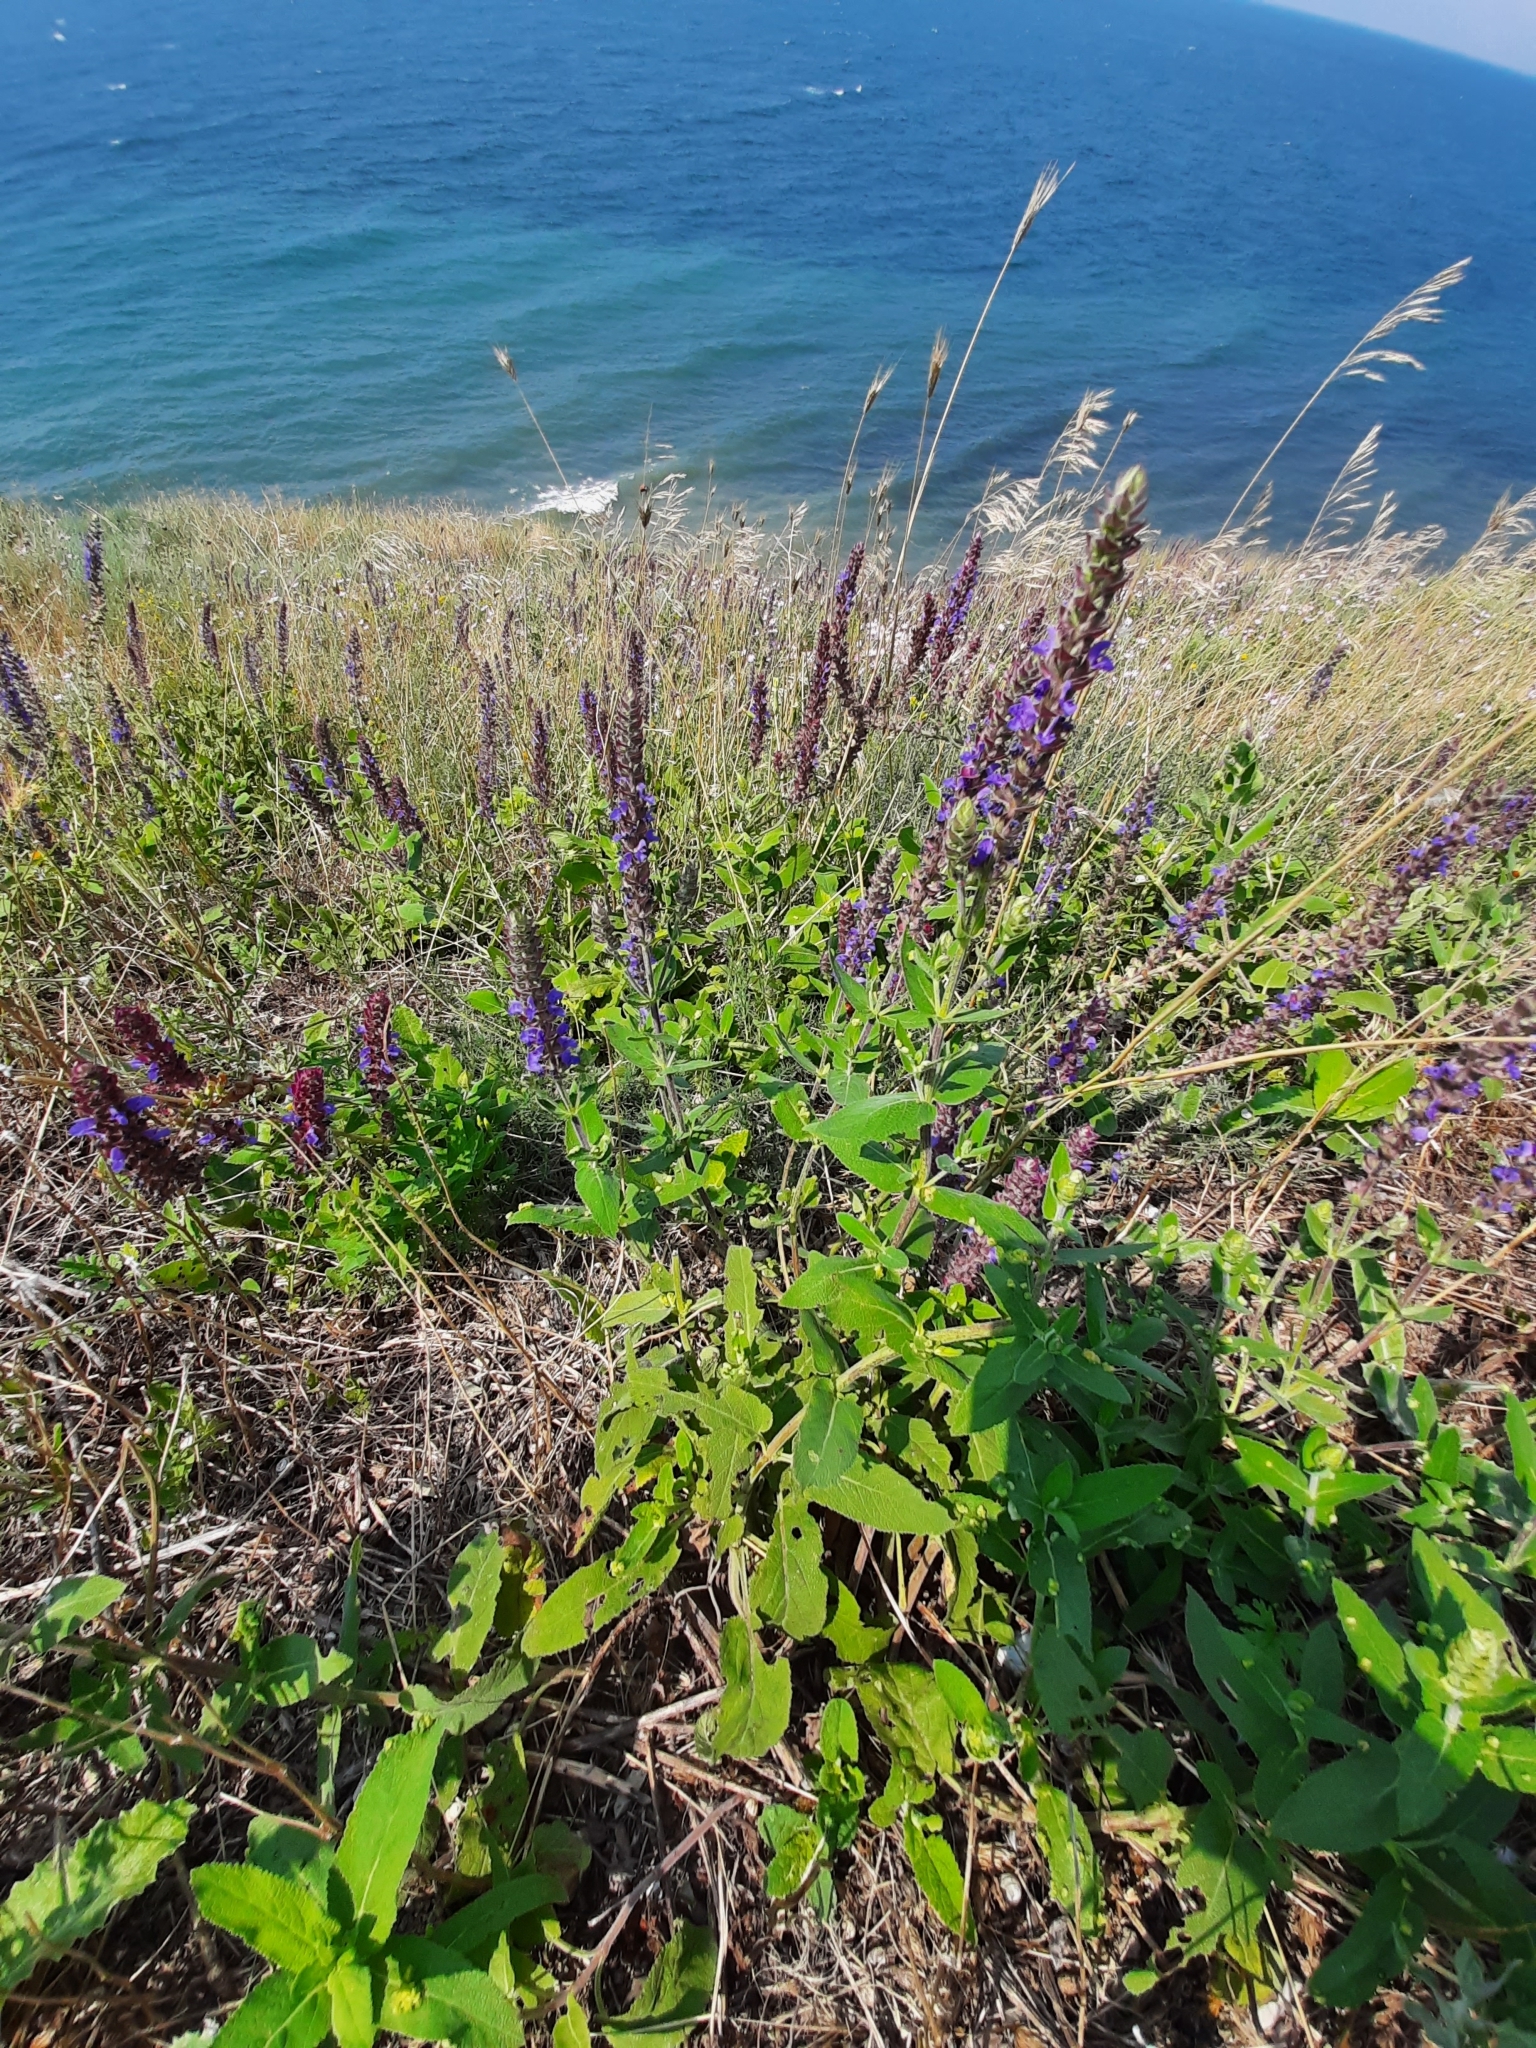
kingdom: Plantae
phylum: Tracheophyta
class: Magnoliopsida
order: Lamiales
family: Lamiaceae
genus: Salvia
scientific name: Salvia nemorosa
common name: Balkan clary
